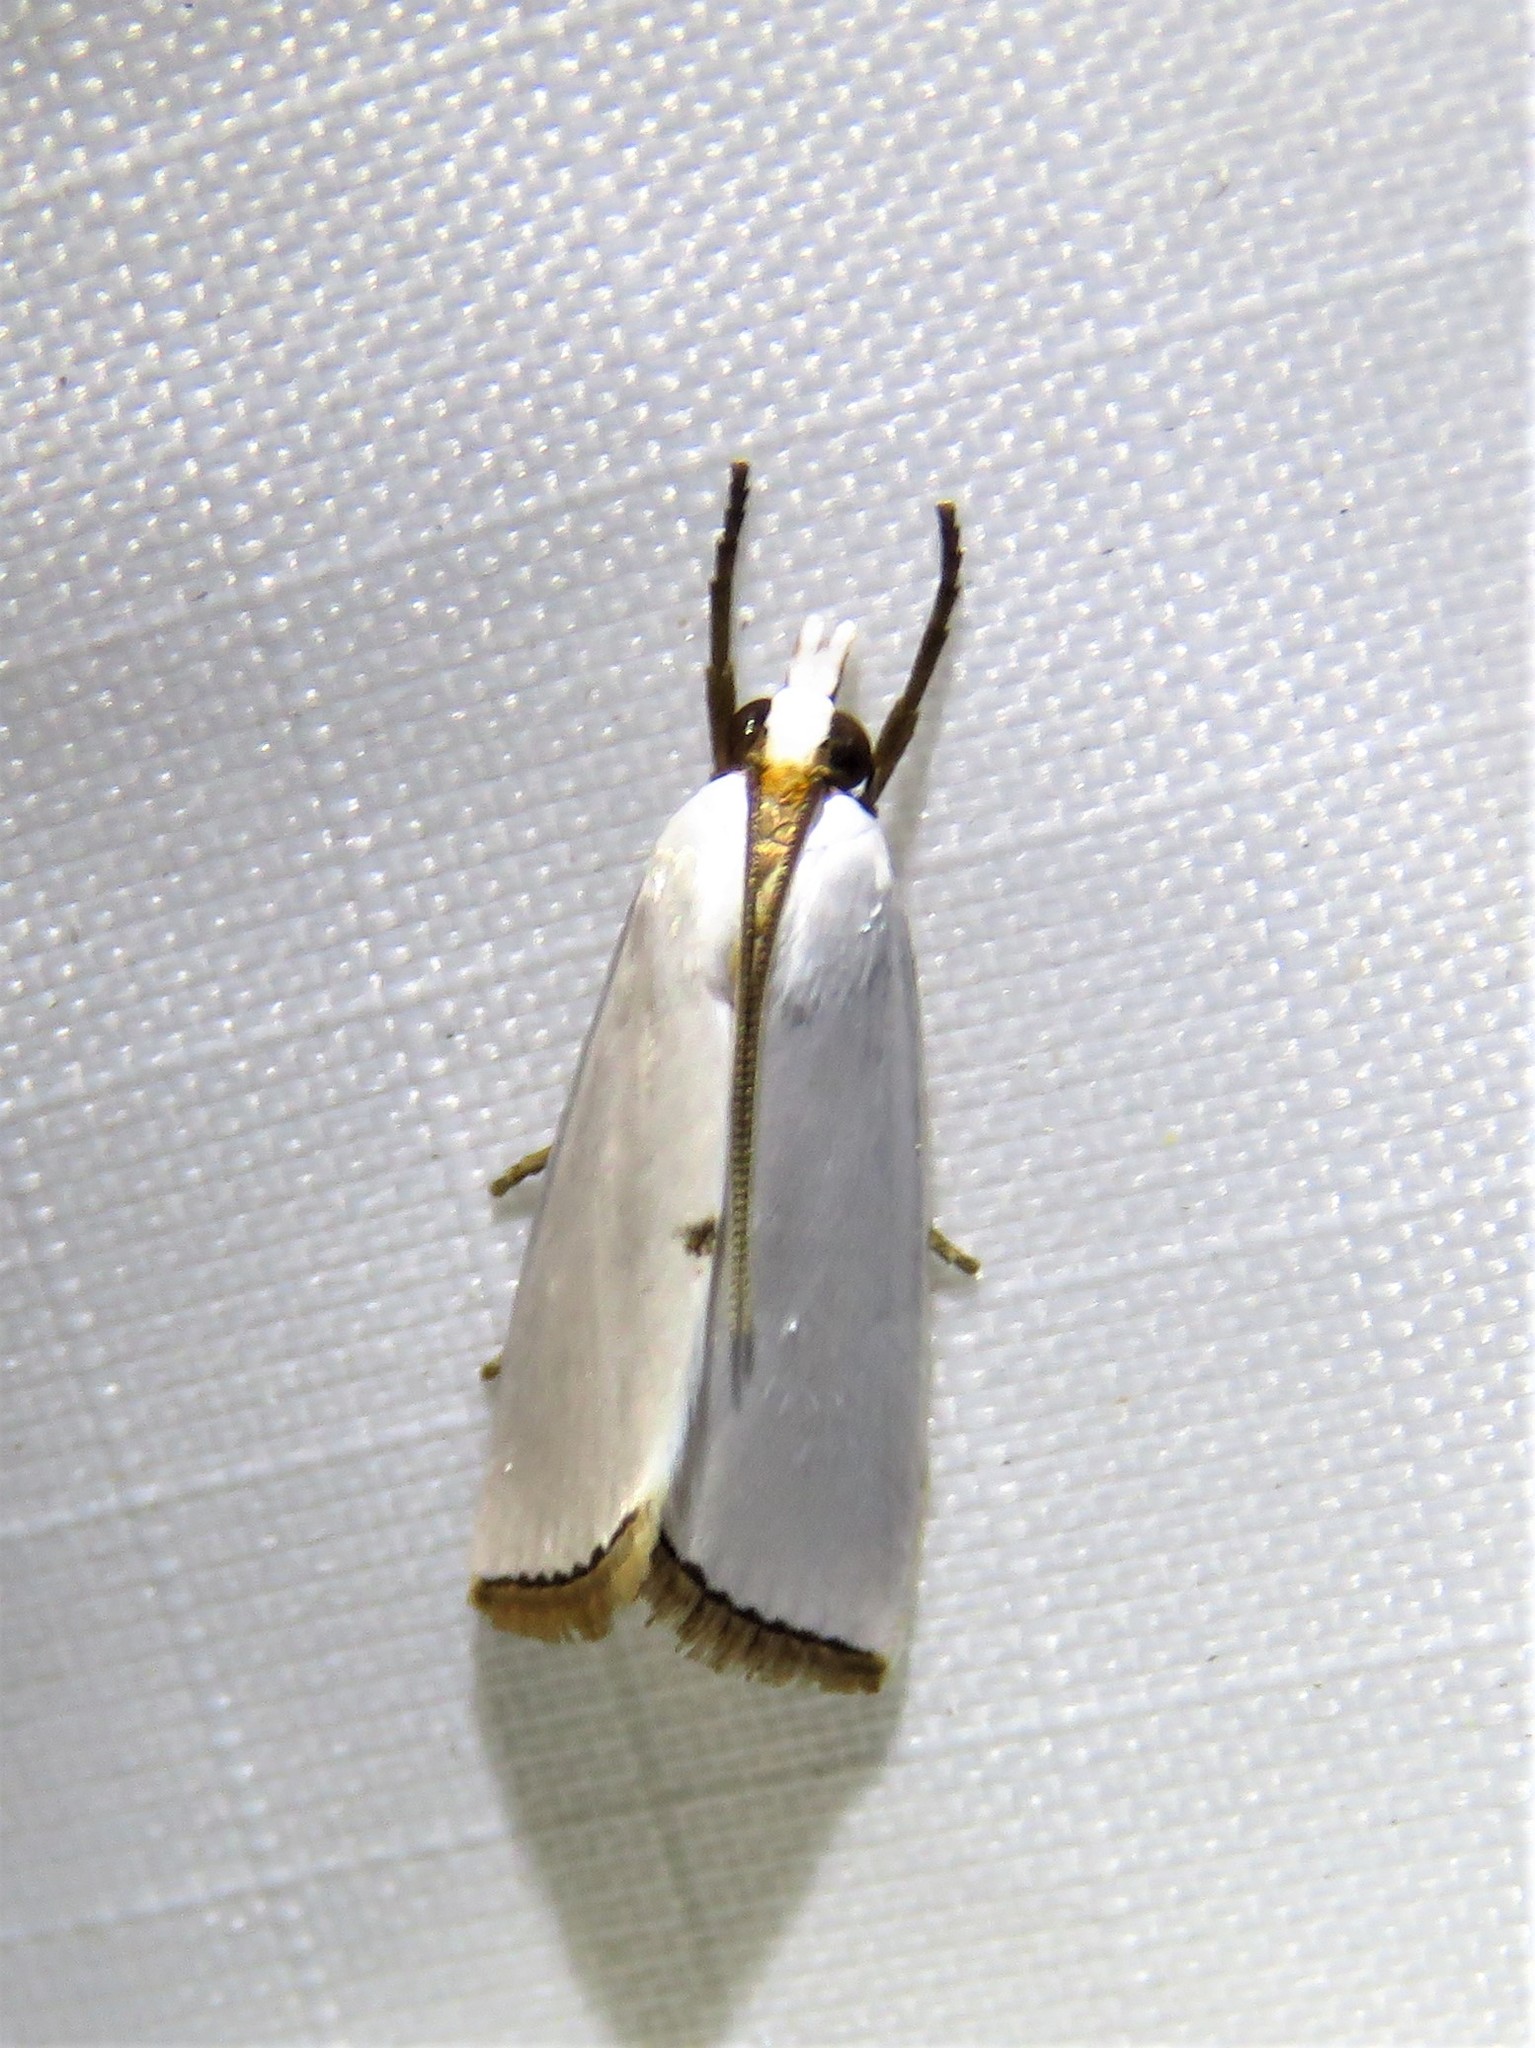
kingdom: Animalia
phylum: Arthropoda
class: Insecta
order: Lepidoptera
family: Crambidae
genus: Argyria
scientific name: Argyria nivalis
